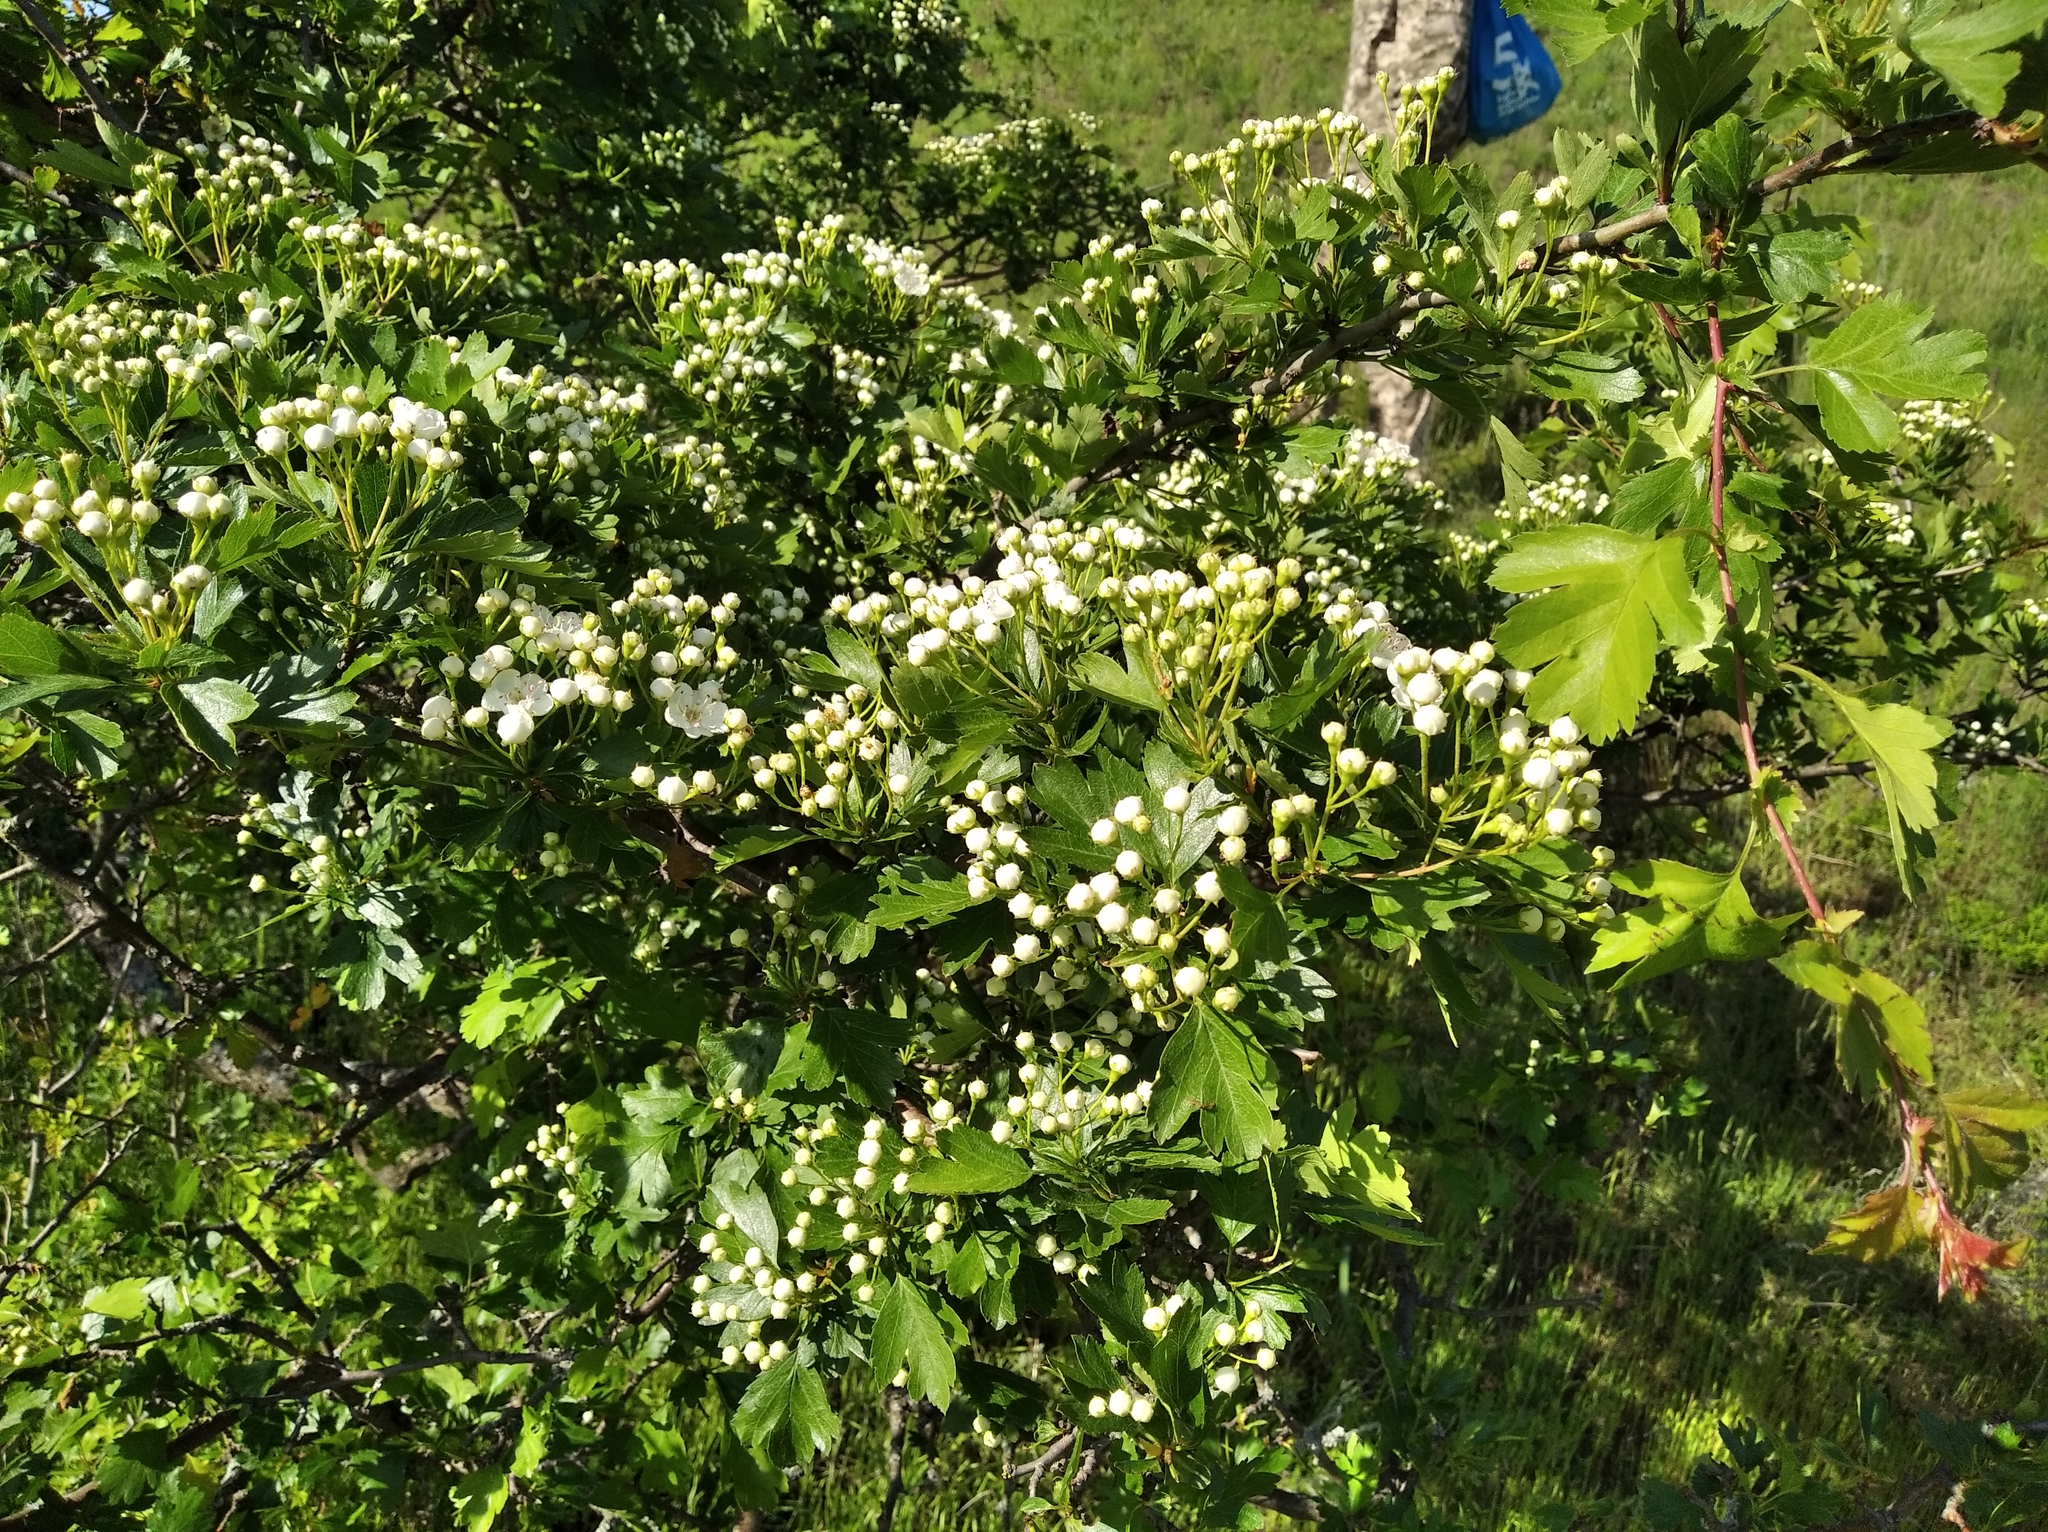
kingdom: Plantae
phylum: Tracheophyta
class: Magnoliopsida
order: Rosales
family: Rosaceae
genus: Crataegus
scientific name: Crataegus rhipidophylla
